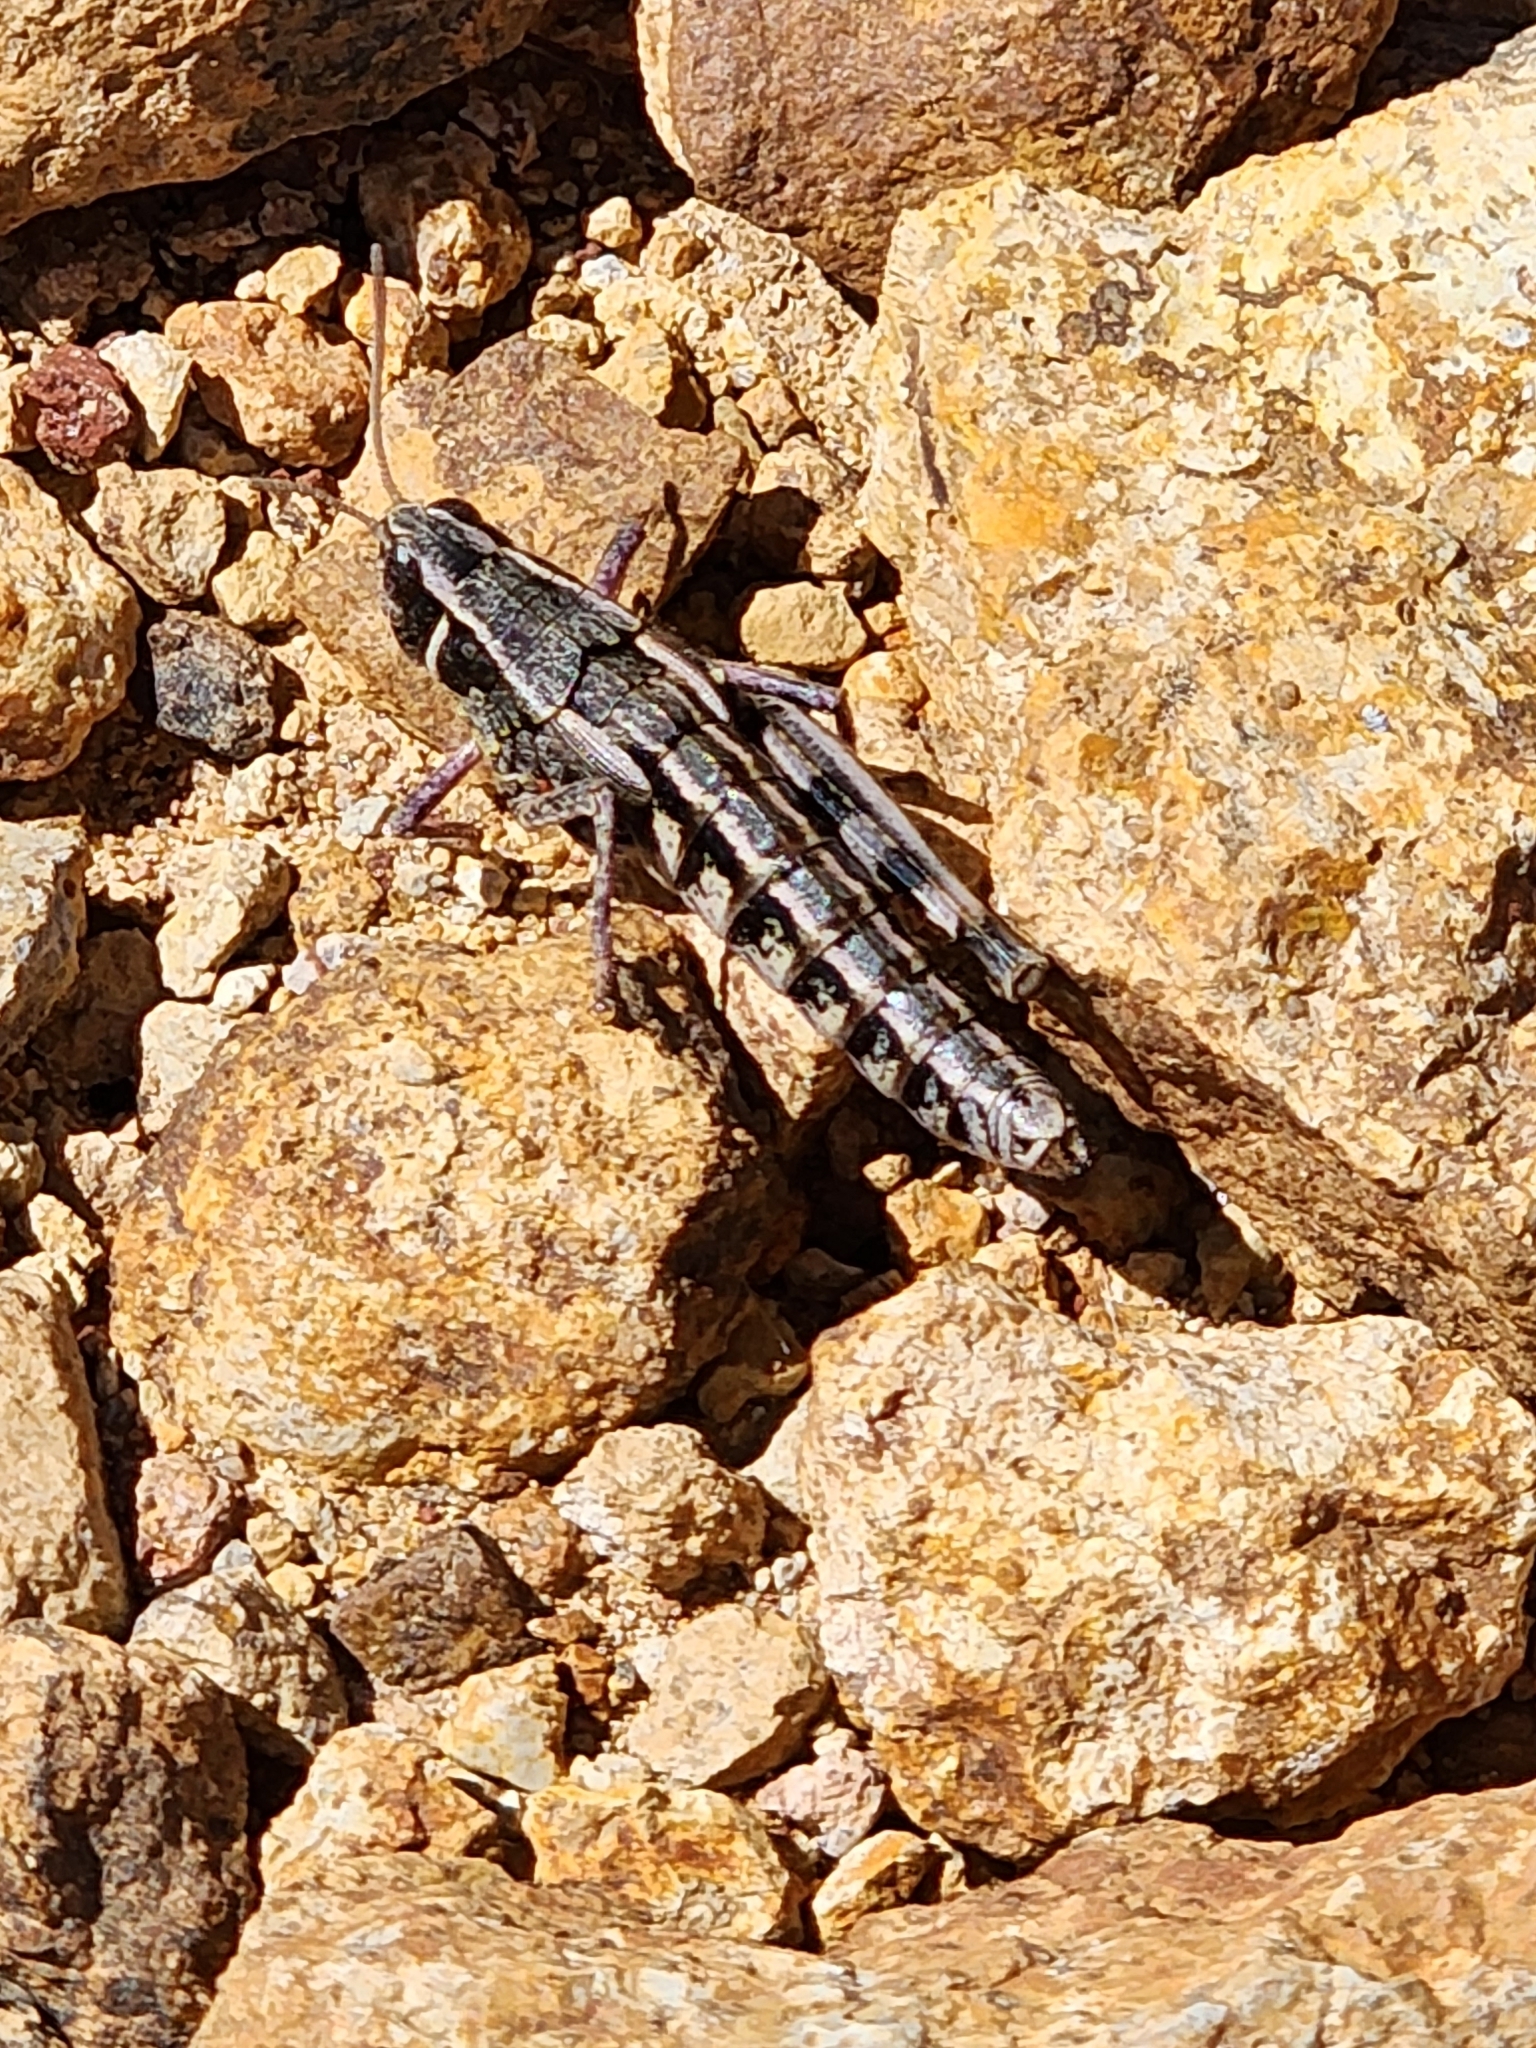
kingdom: Animalia
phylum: Arthropoda
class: Insecta
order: Orthoptera
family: Acrididae
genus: Sigaus
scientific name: Sigaus
